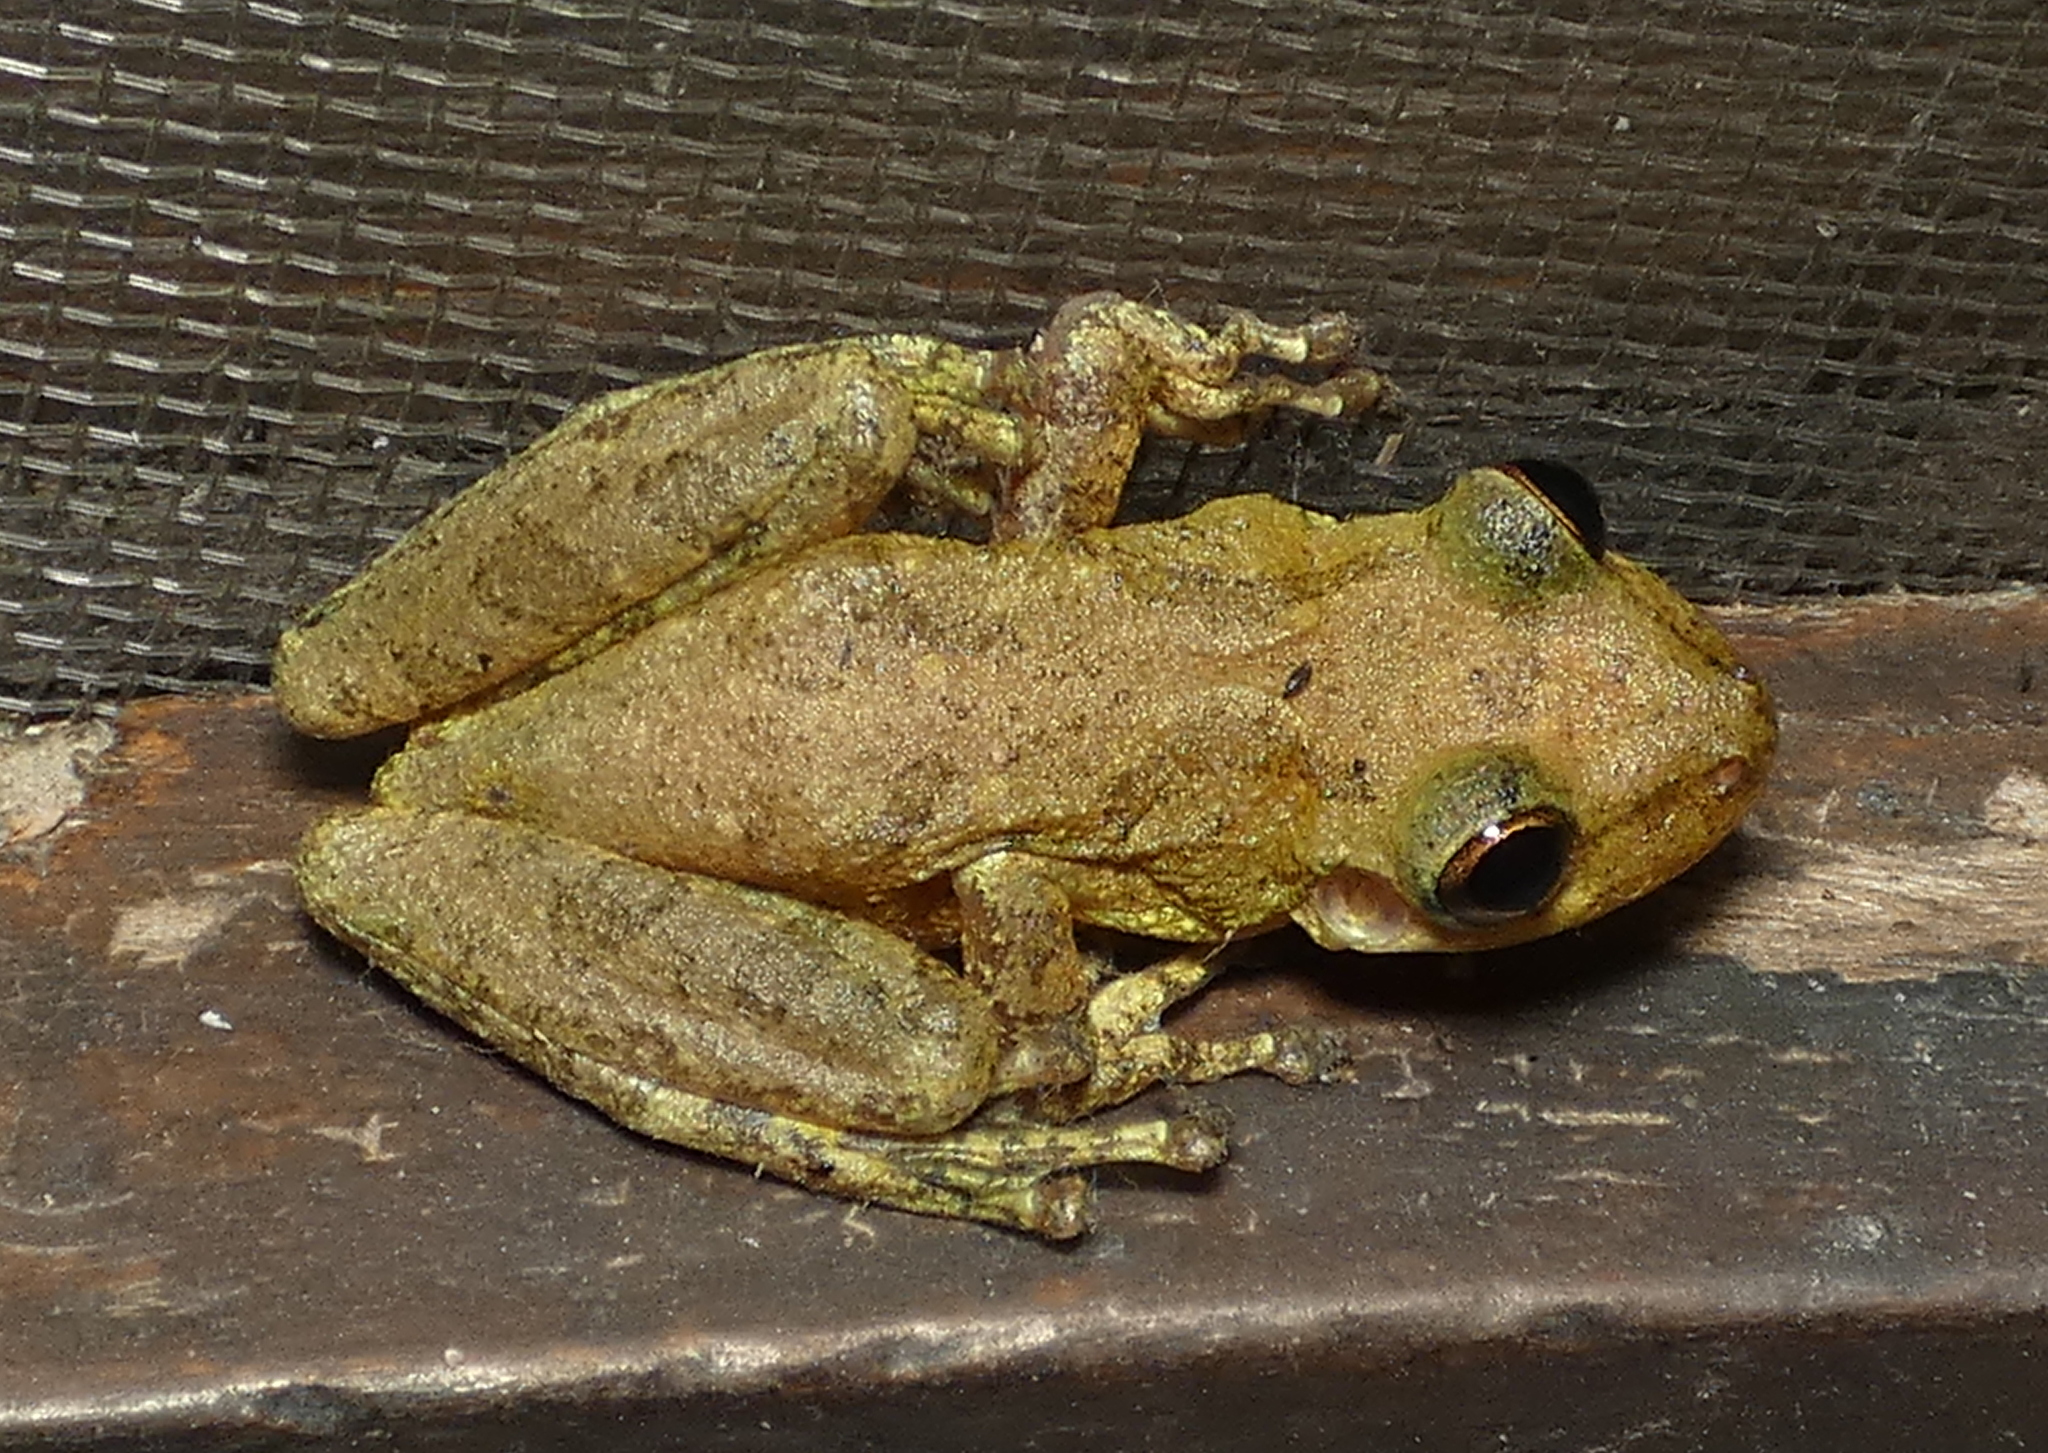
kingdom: Animalia
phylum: Chordata
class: Amphibia
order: Anura
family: Hylidae
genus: Scinax
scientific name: Scinax x-signatus
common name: Venezuela snouted treefrog
